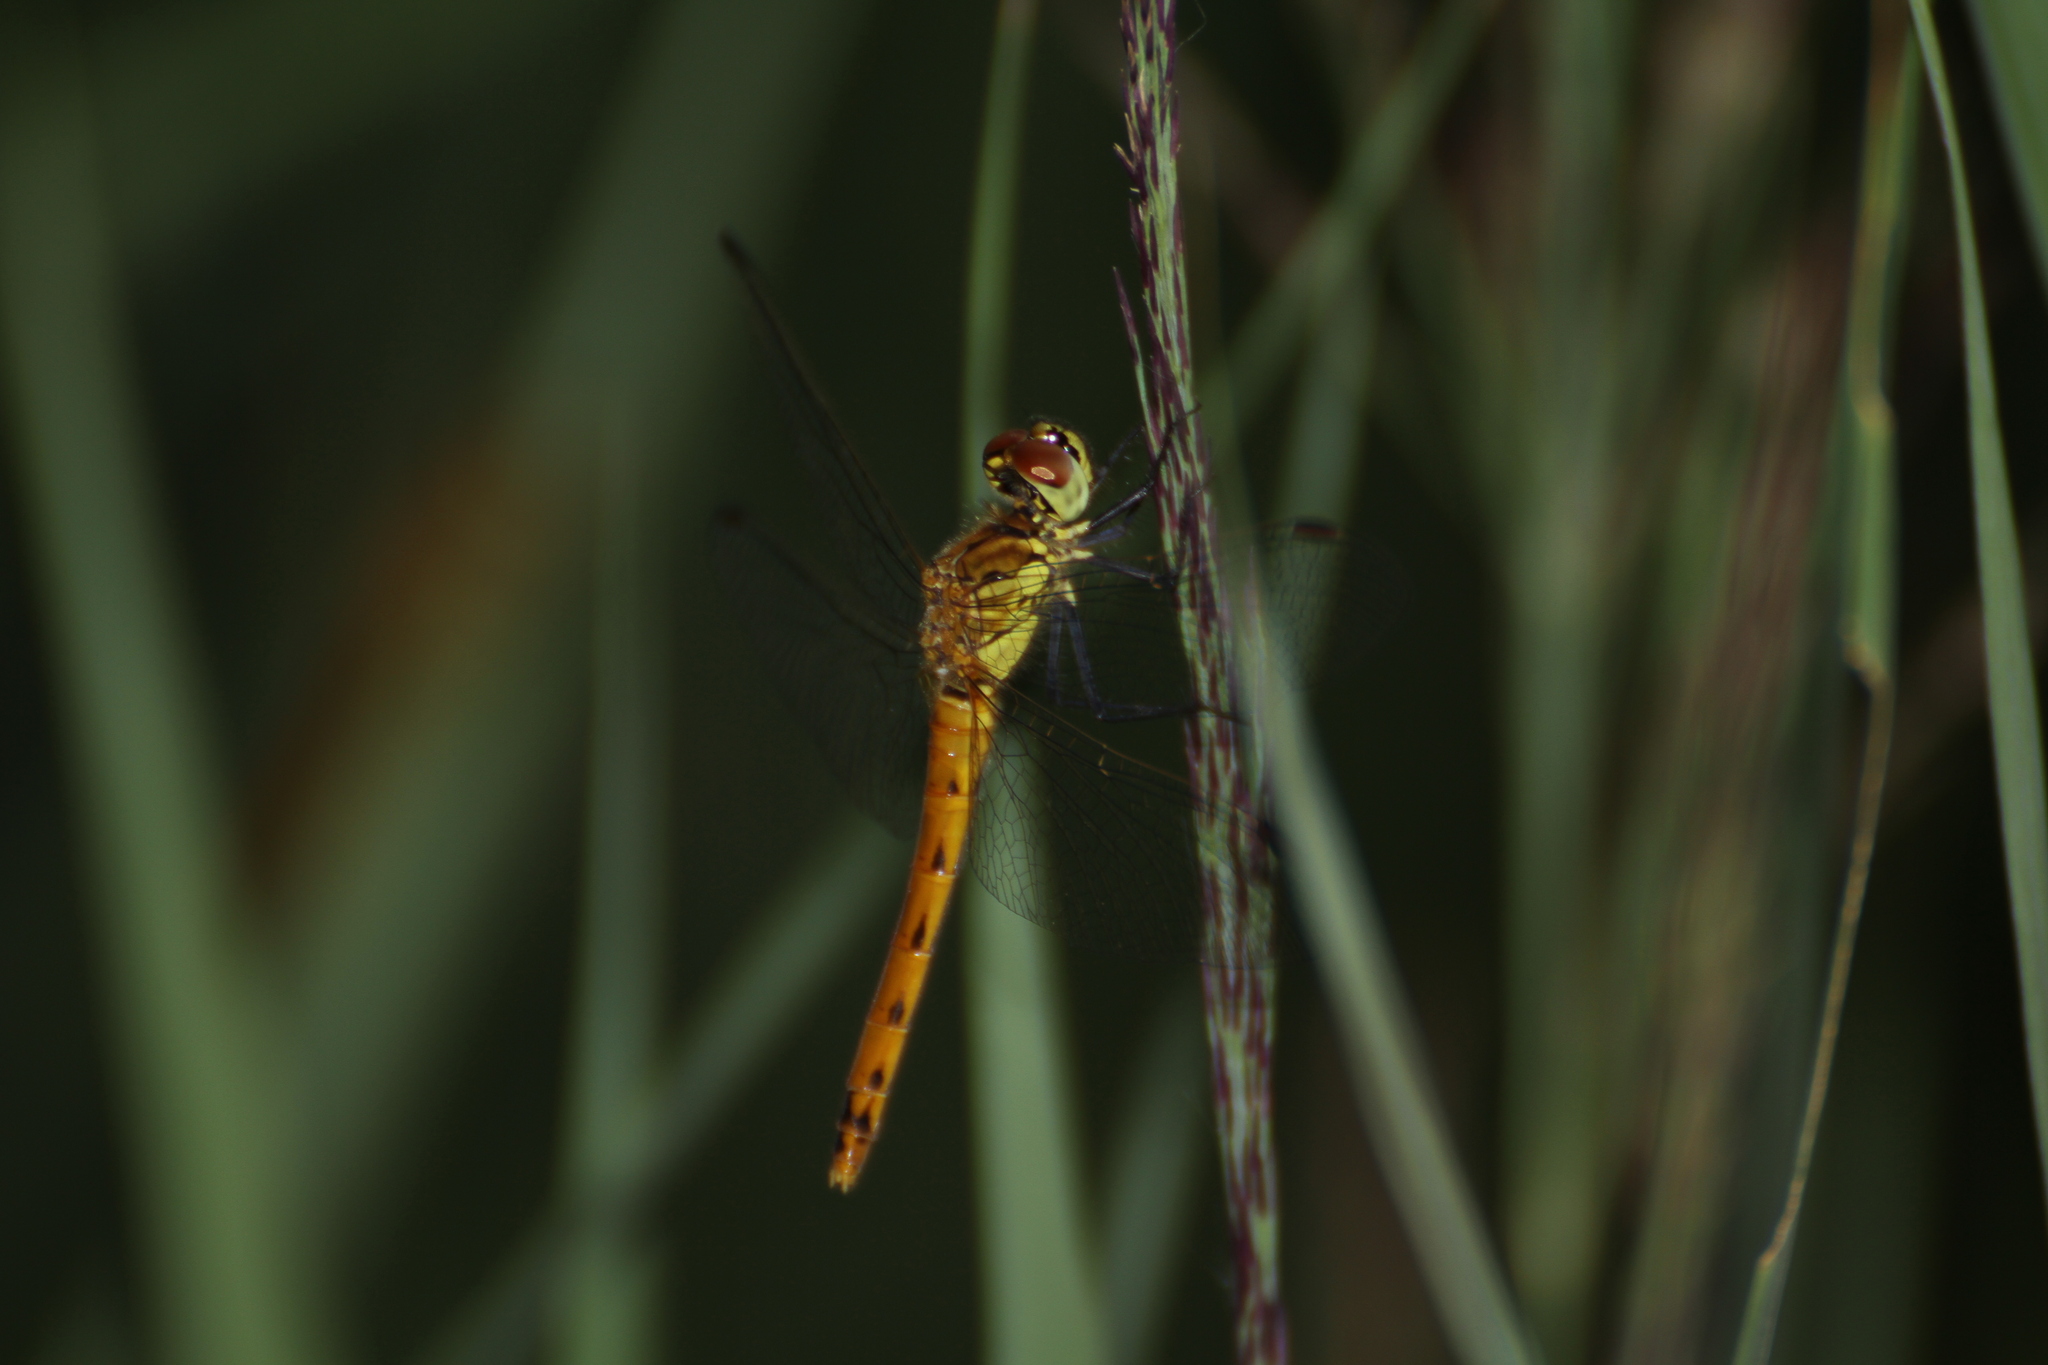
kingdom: Animalia
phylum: Arthropoda
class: Insecta
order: Odonata
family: Libellulidae
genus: Sympetrum
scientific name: Sympetrum depressiusculum
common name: Spotted darter
